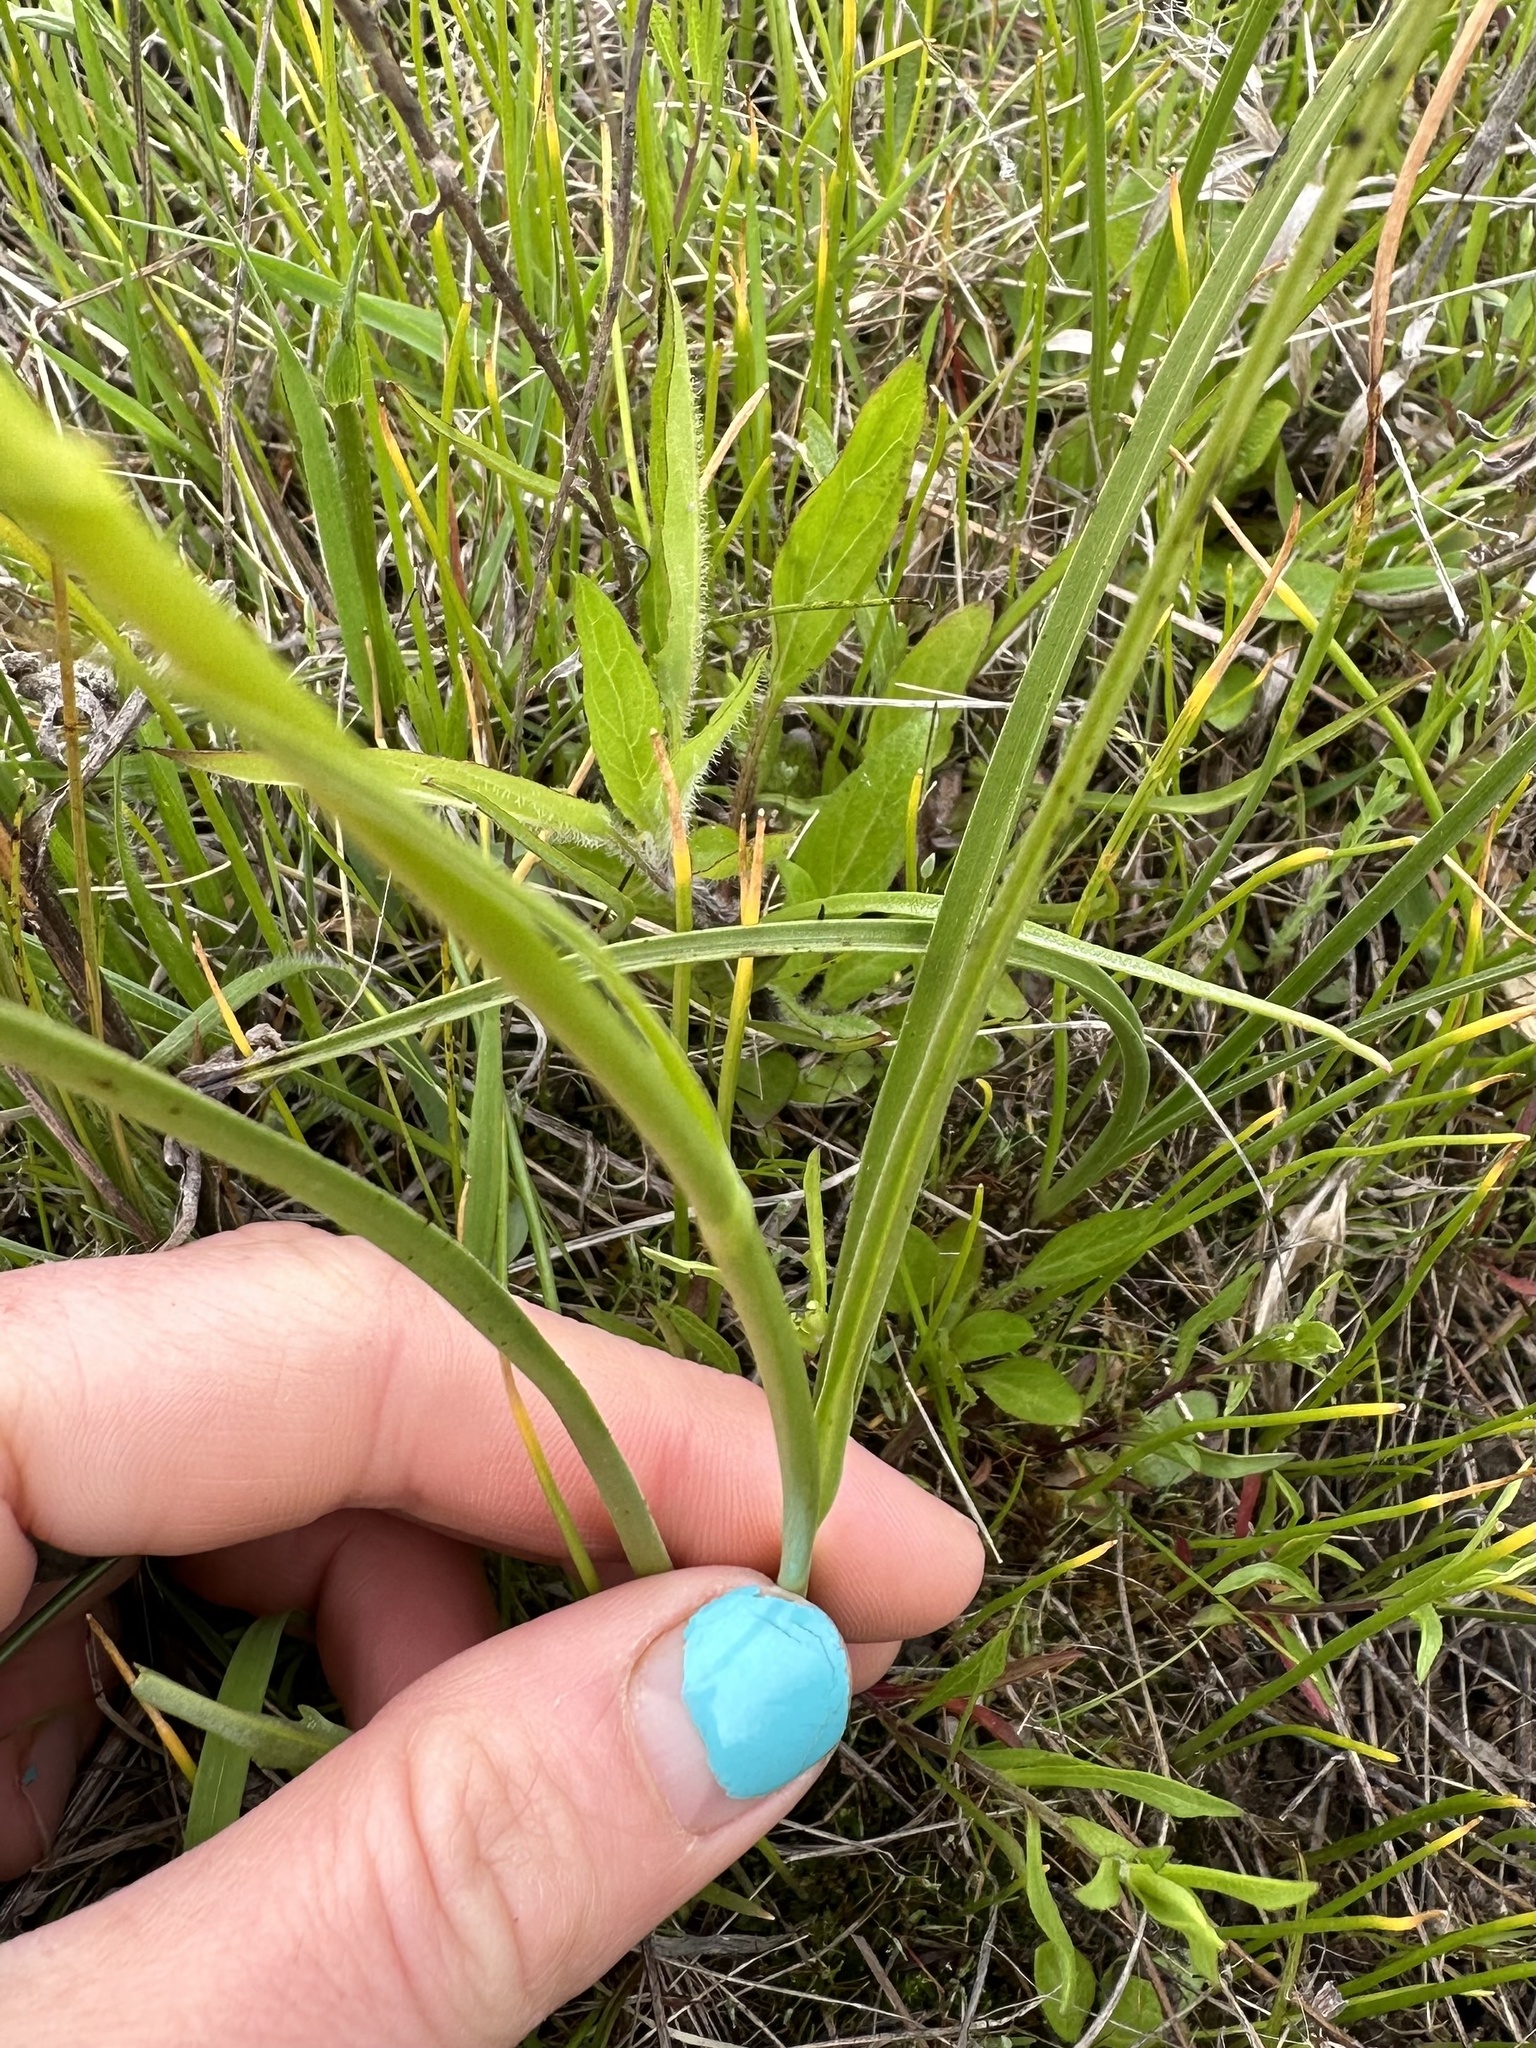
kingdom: Plantae
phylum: Tracheophyta
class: Liliopsida
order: Liliales
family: Melanthiaceae
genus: Toxicoscordion
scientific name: Toxicoscordion venenosum
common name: Meadow death camas
